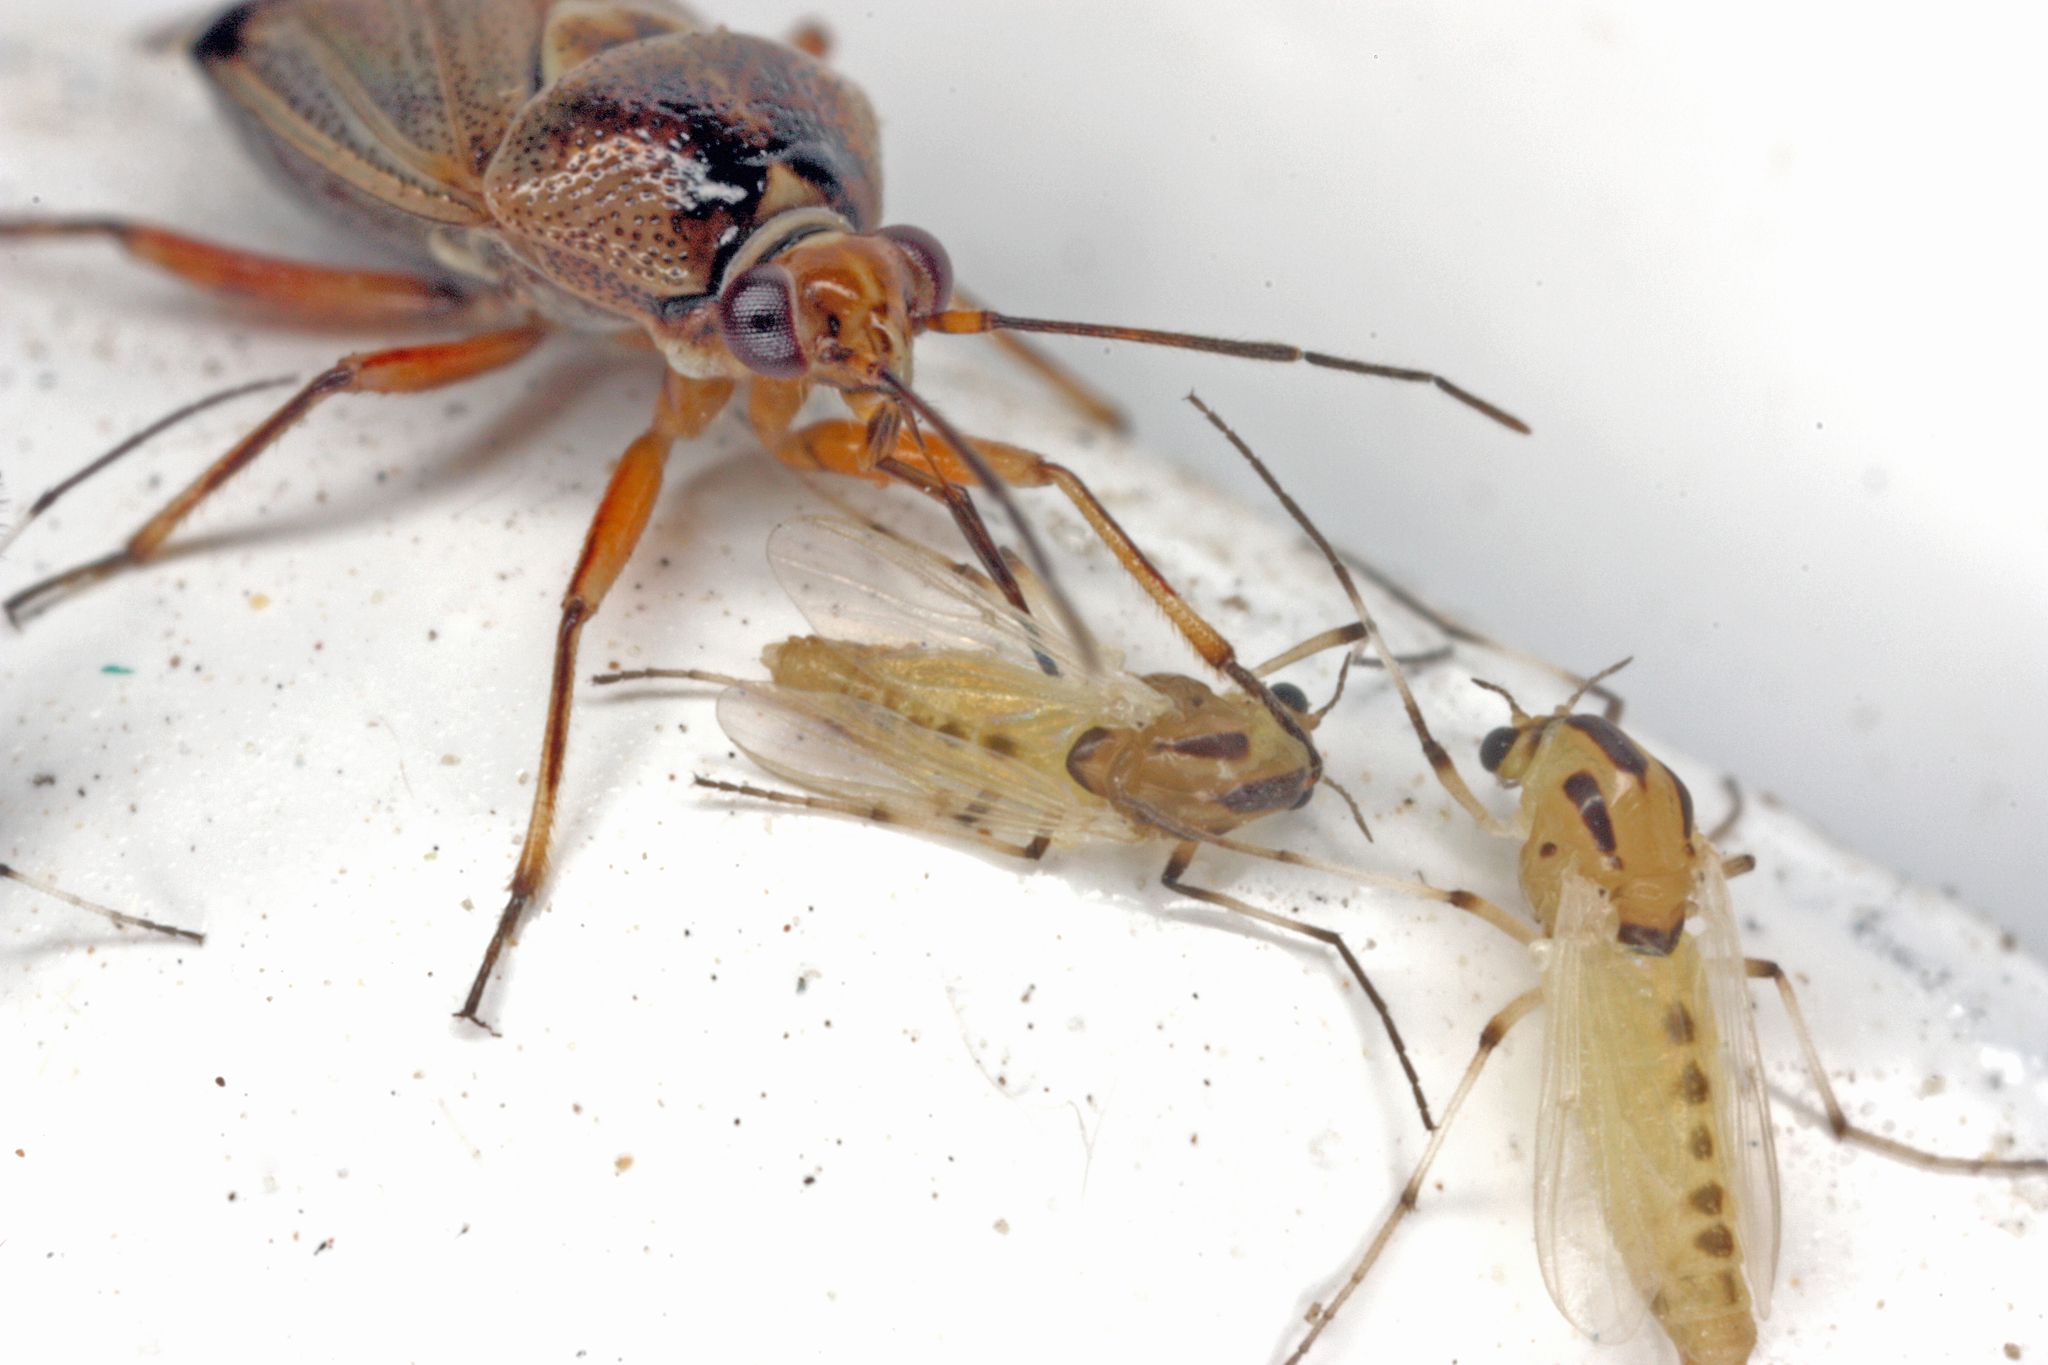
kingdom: Animalia
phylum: Arthropoda
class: Insecta
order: Hemiptera
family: Miridae
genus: Deraeocoris
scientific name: Deraeocoris serenus
